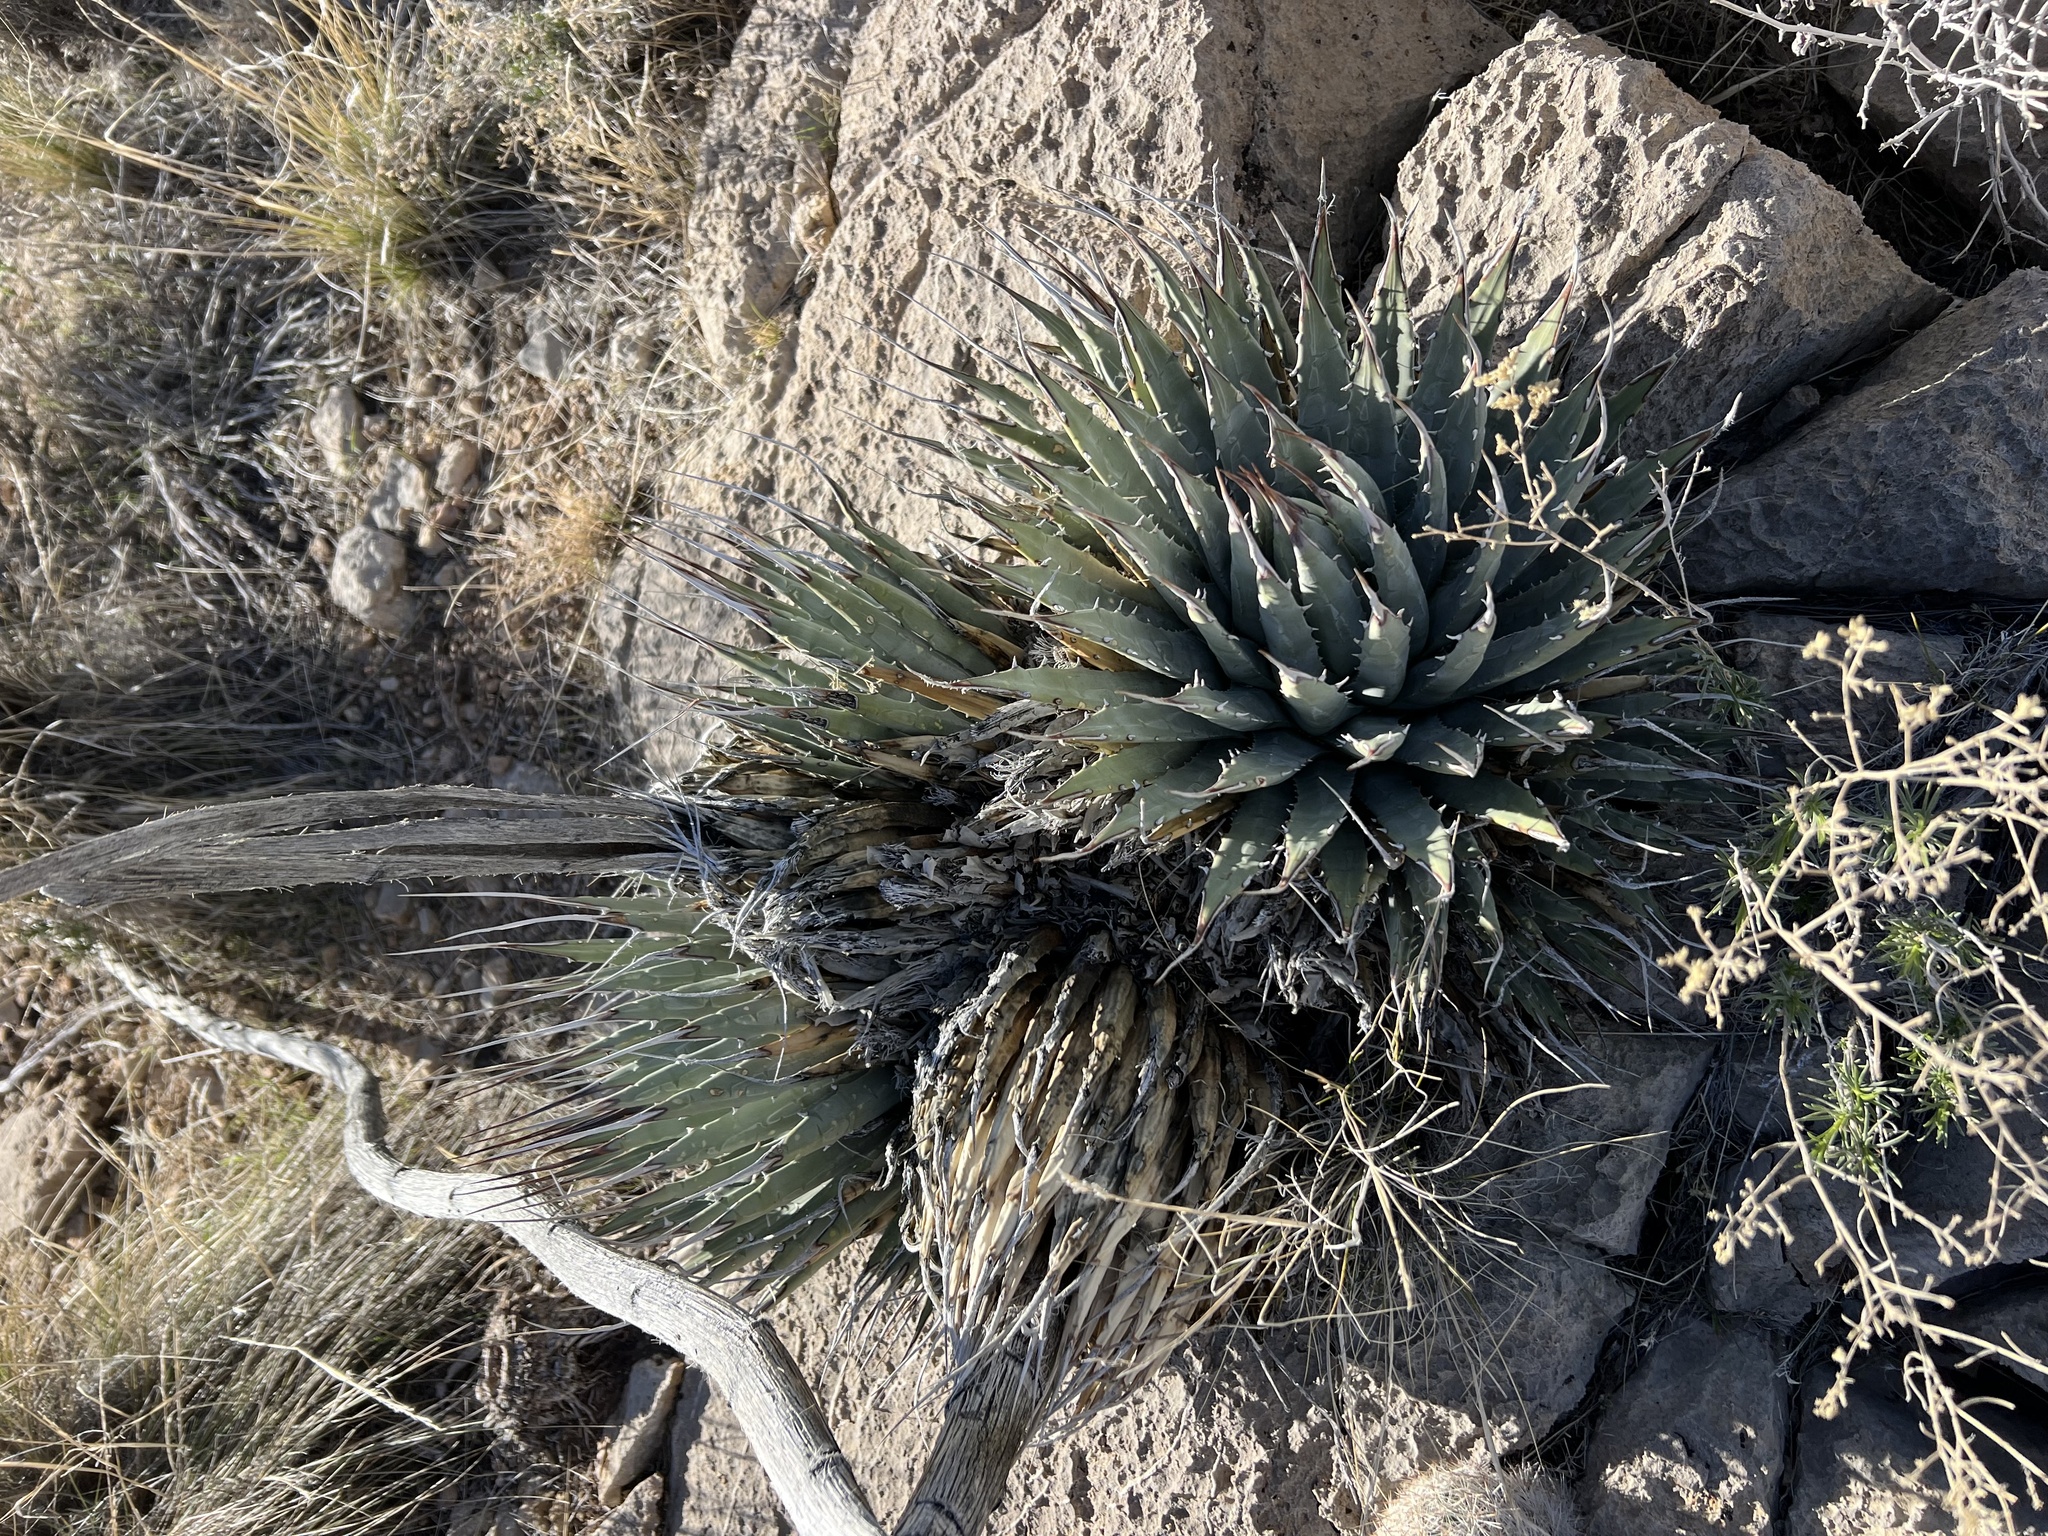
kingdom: Plantae
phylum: Tracheophyta
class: Liliopsida
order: Asparagales
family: Asparagaceae
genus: Agave
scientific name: Agave utahensis
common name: Utah agave
